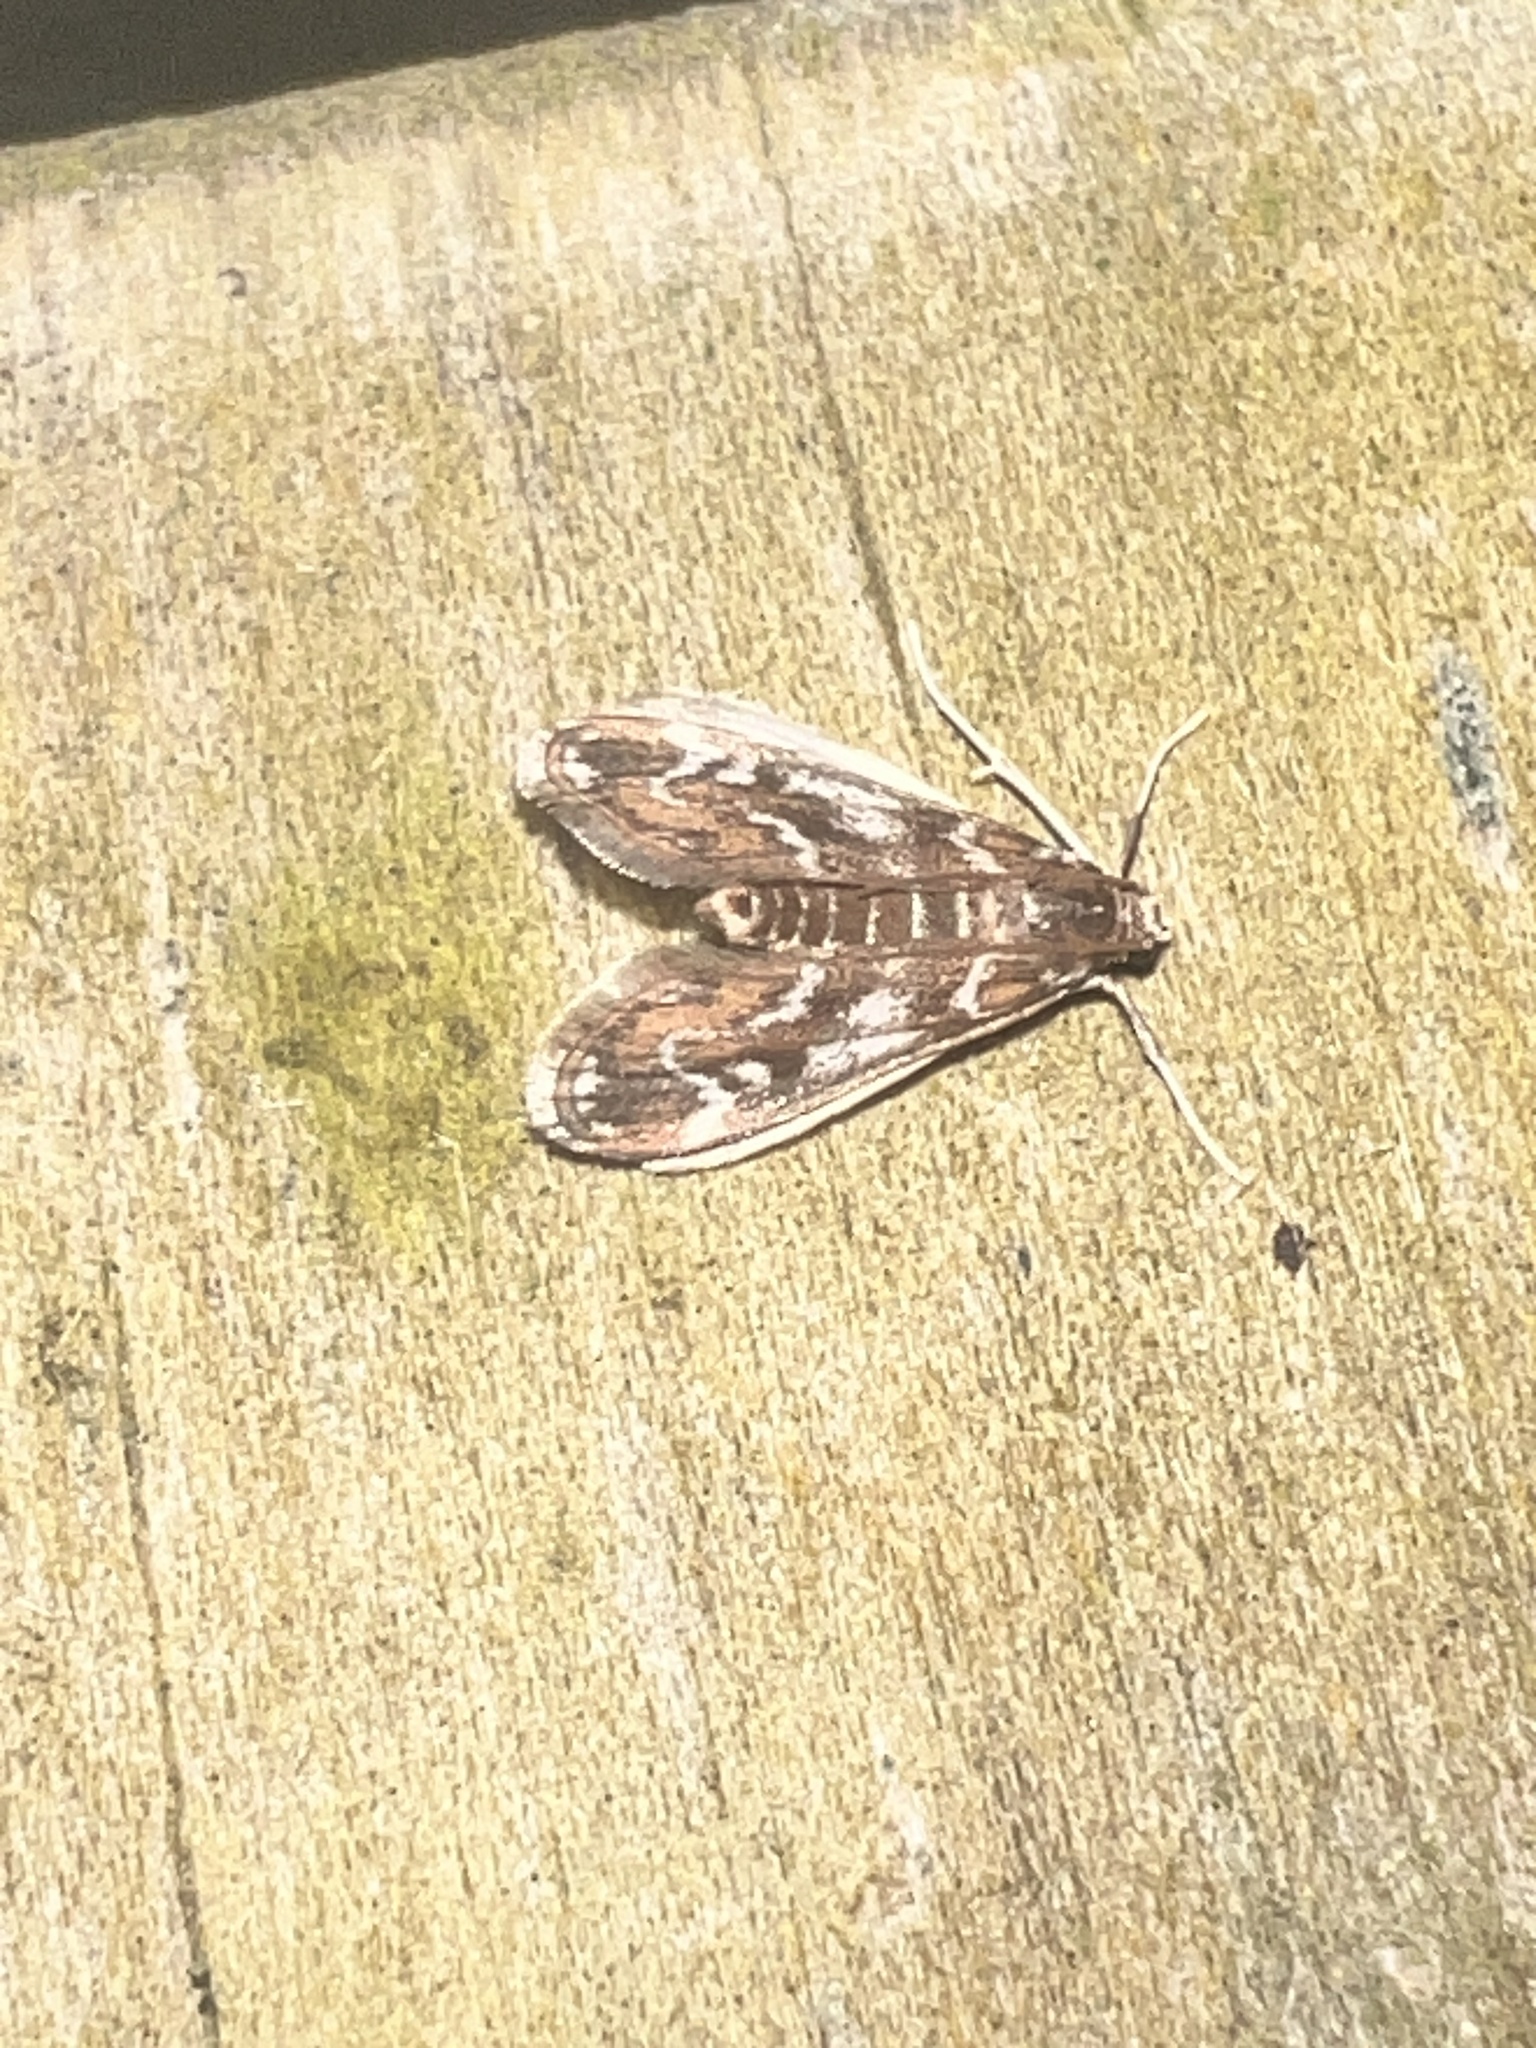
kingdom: Animalia
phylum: Arthropoda
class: Insecta
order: Lepidoptera
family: Crambidae
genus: Hygraula
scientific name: Hygraula nitens
